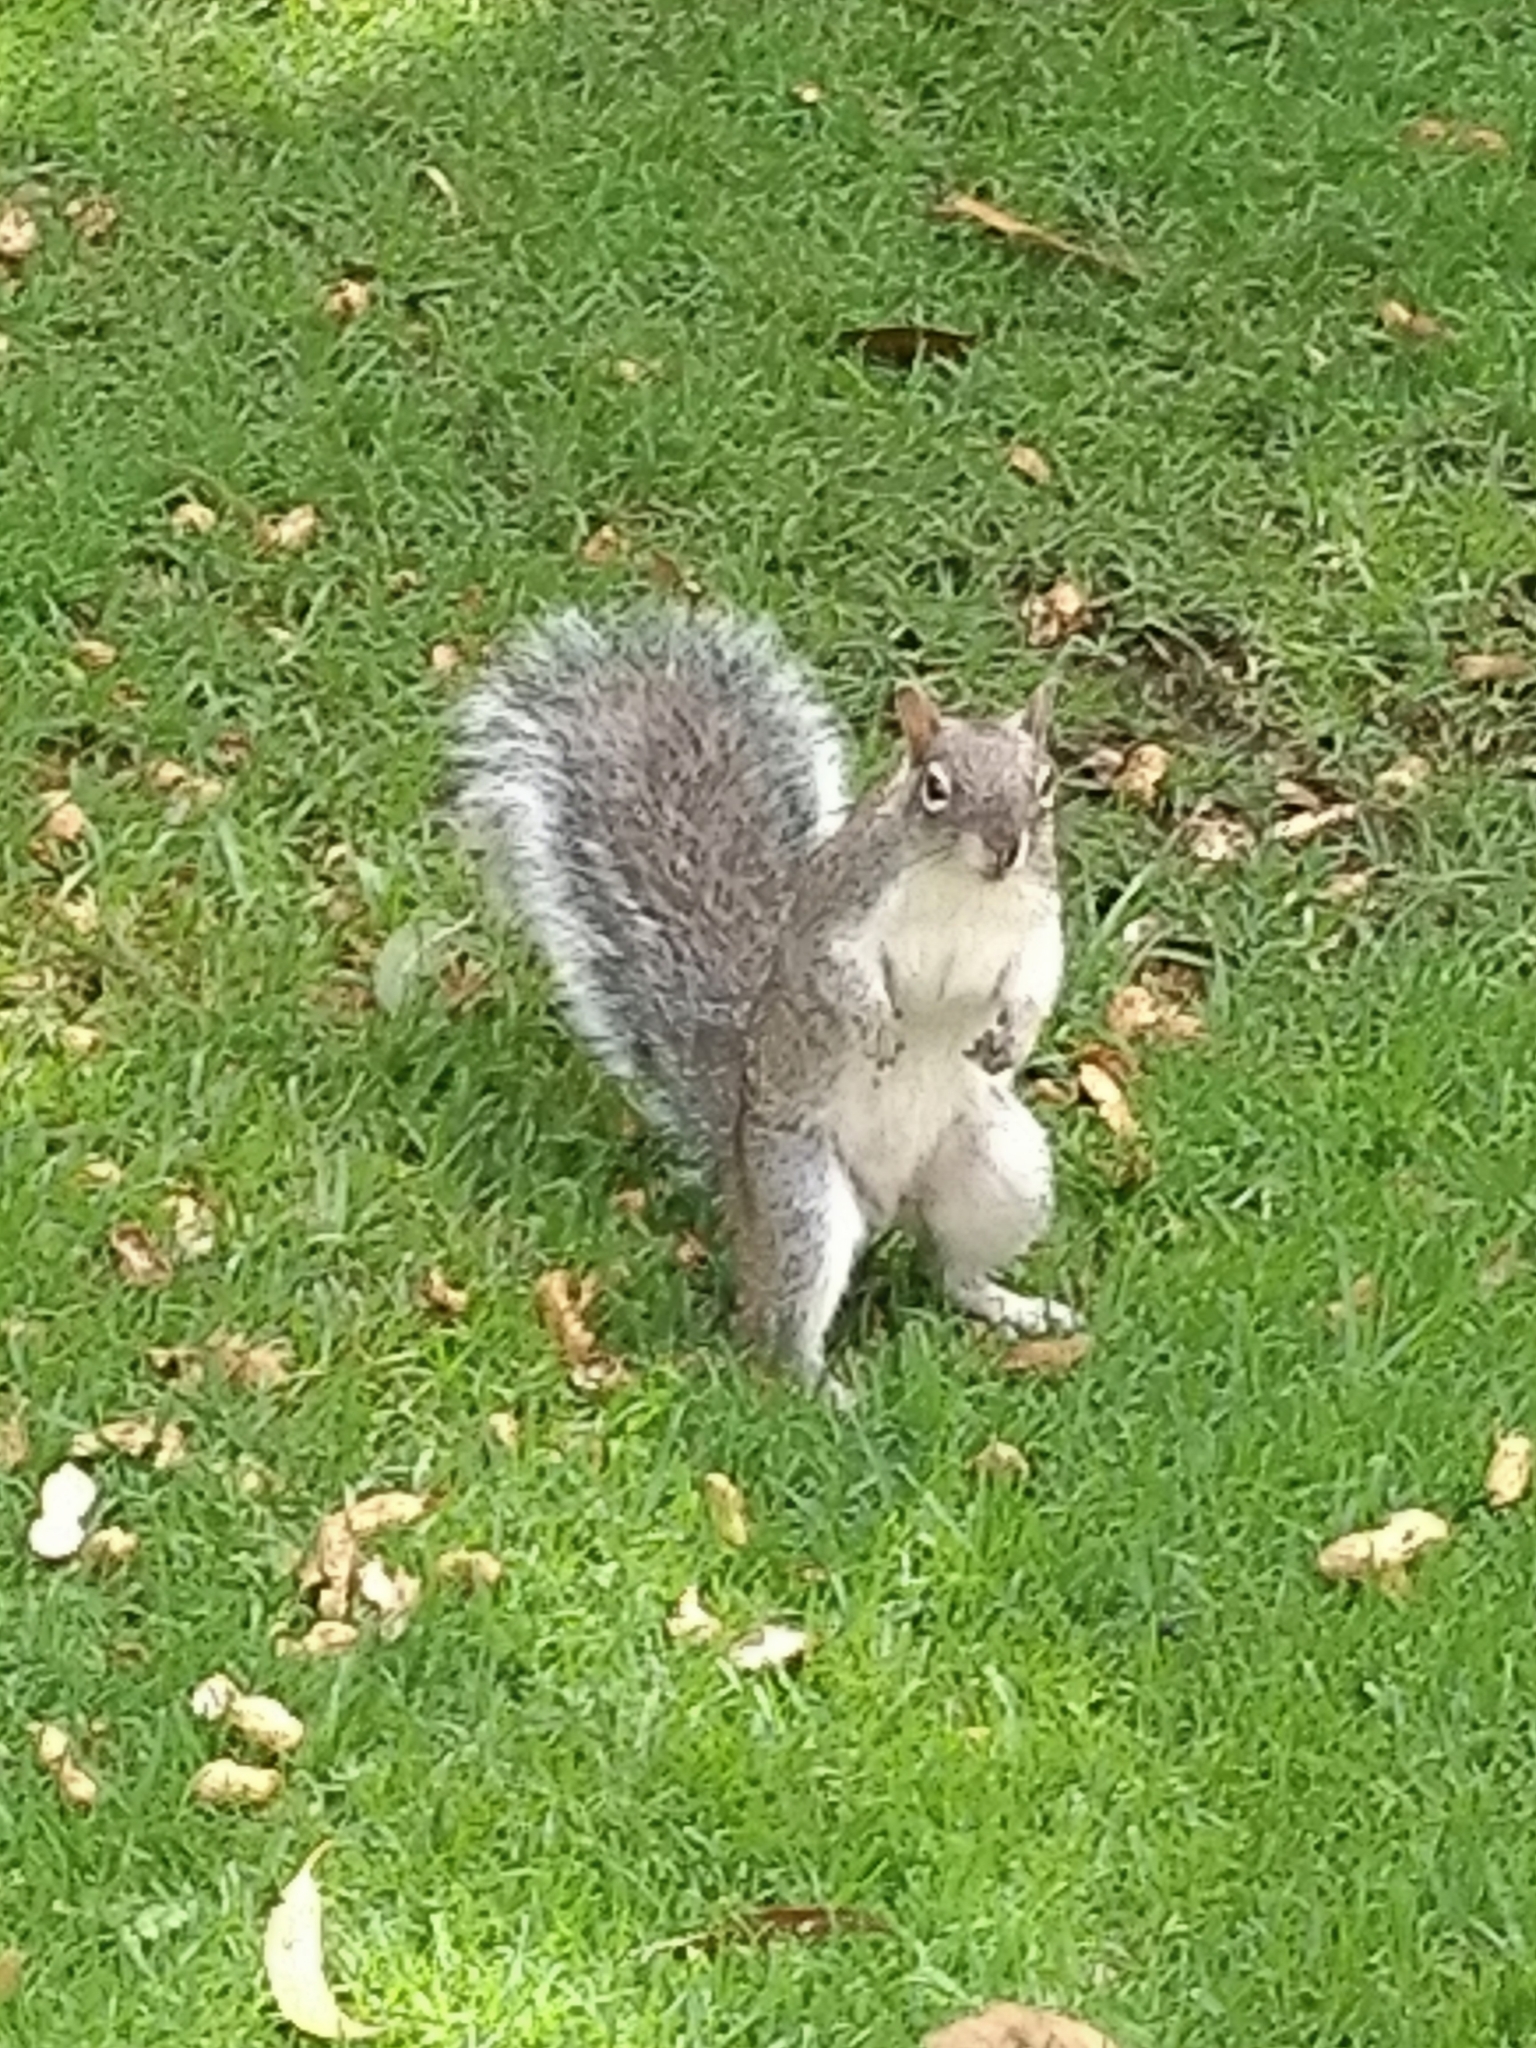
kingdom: Animalia
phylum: Chordata
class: Mammalia
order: Rodentia
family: Sciuridae
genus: Sciurus
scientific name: Sciurus oculatus
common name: Peters's squirrel
